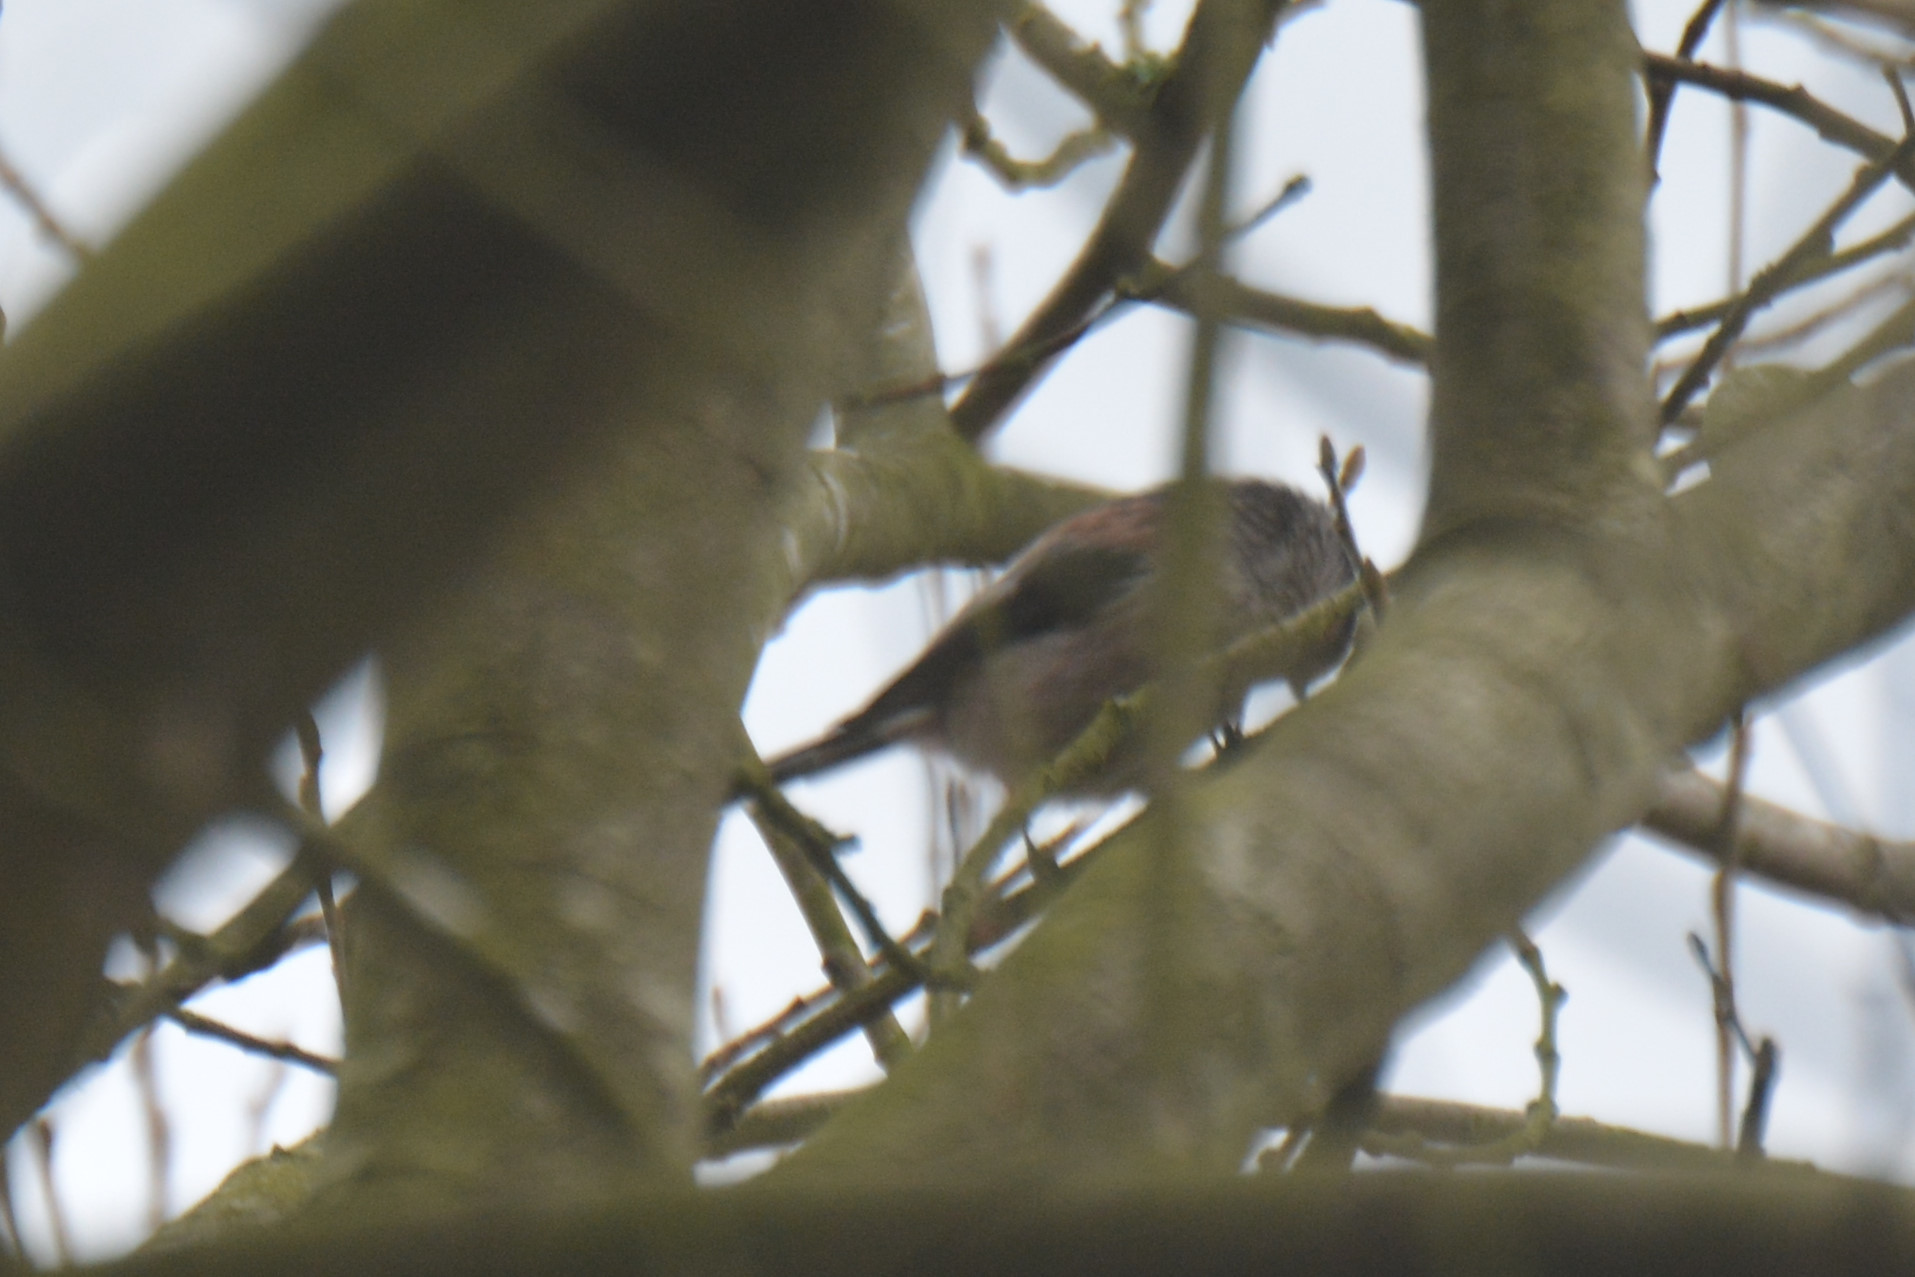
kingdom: Animalia
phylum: Chordata
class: Aves
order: Passeriformes
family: Aegithalidae
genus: Aegithalos
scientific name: Aegithalos caudatus
